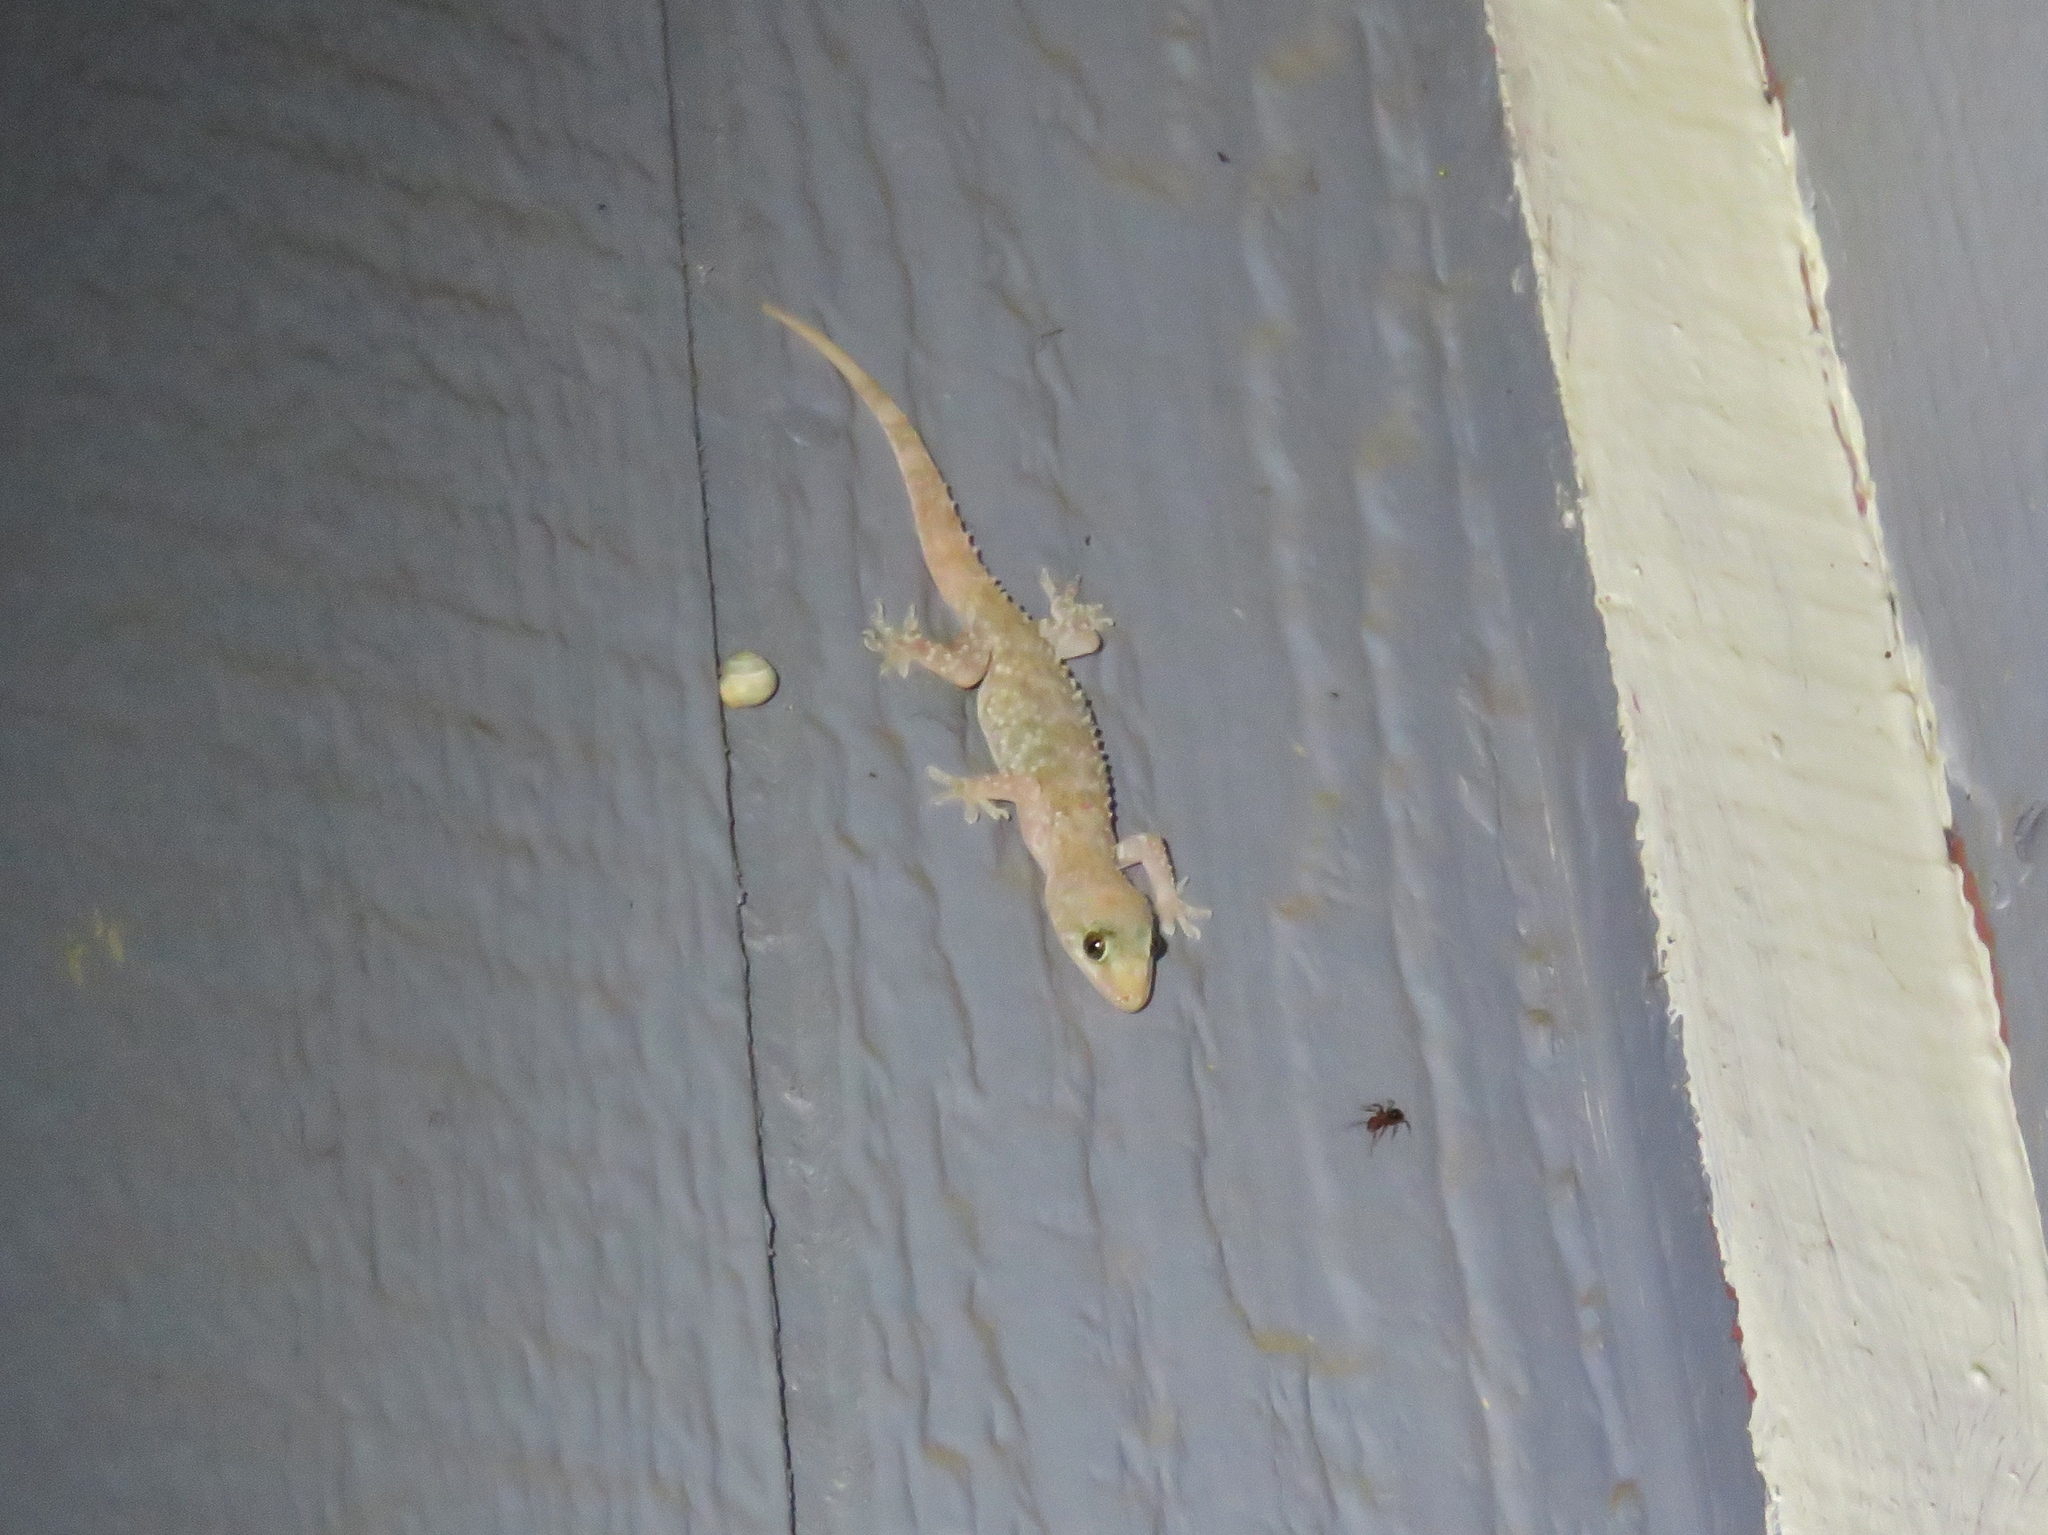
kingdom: Animalia
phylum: Chordata
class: Squamata
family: Gekkonidae
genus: Hemidactylus
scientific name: Hemidactylus turcicus
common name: Turkish gecko
